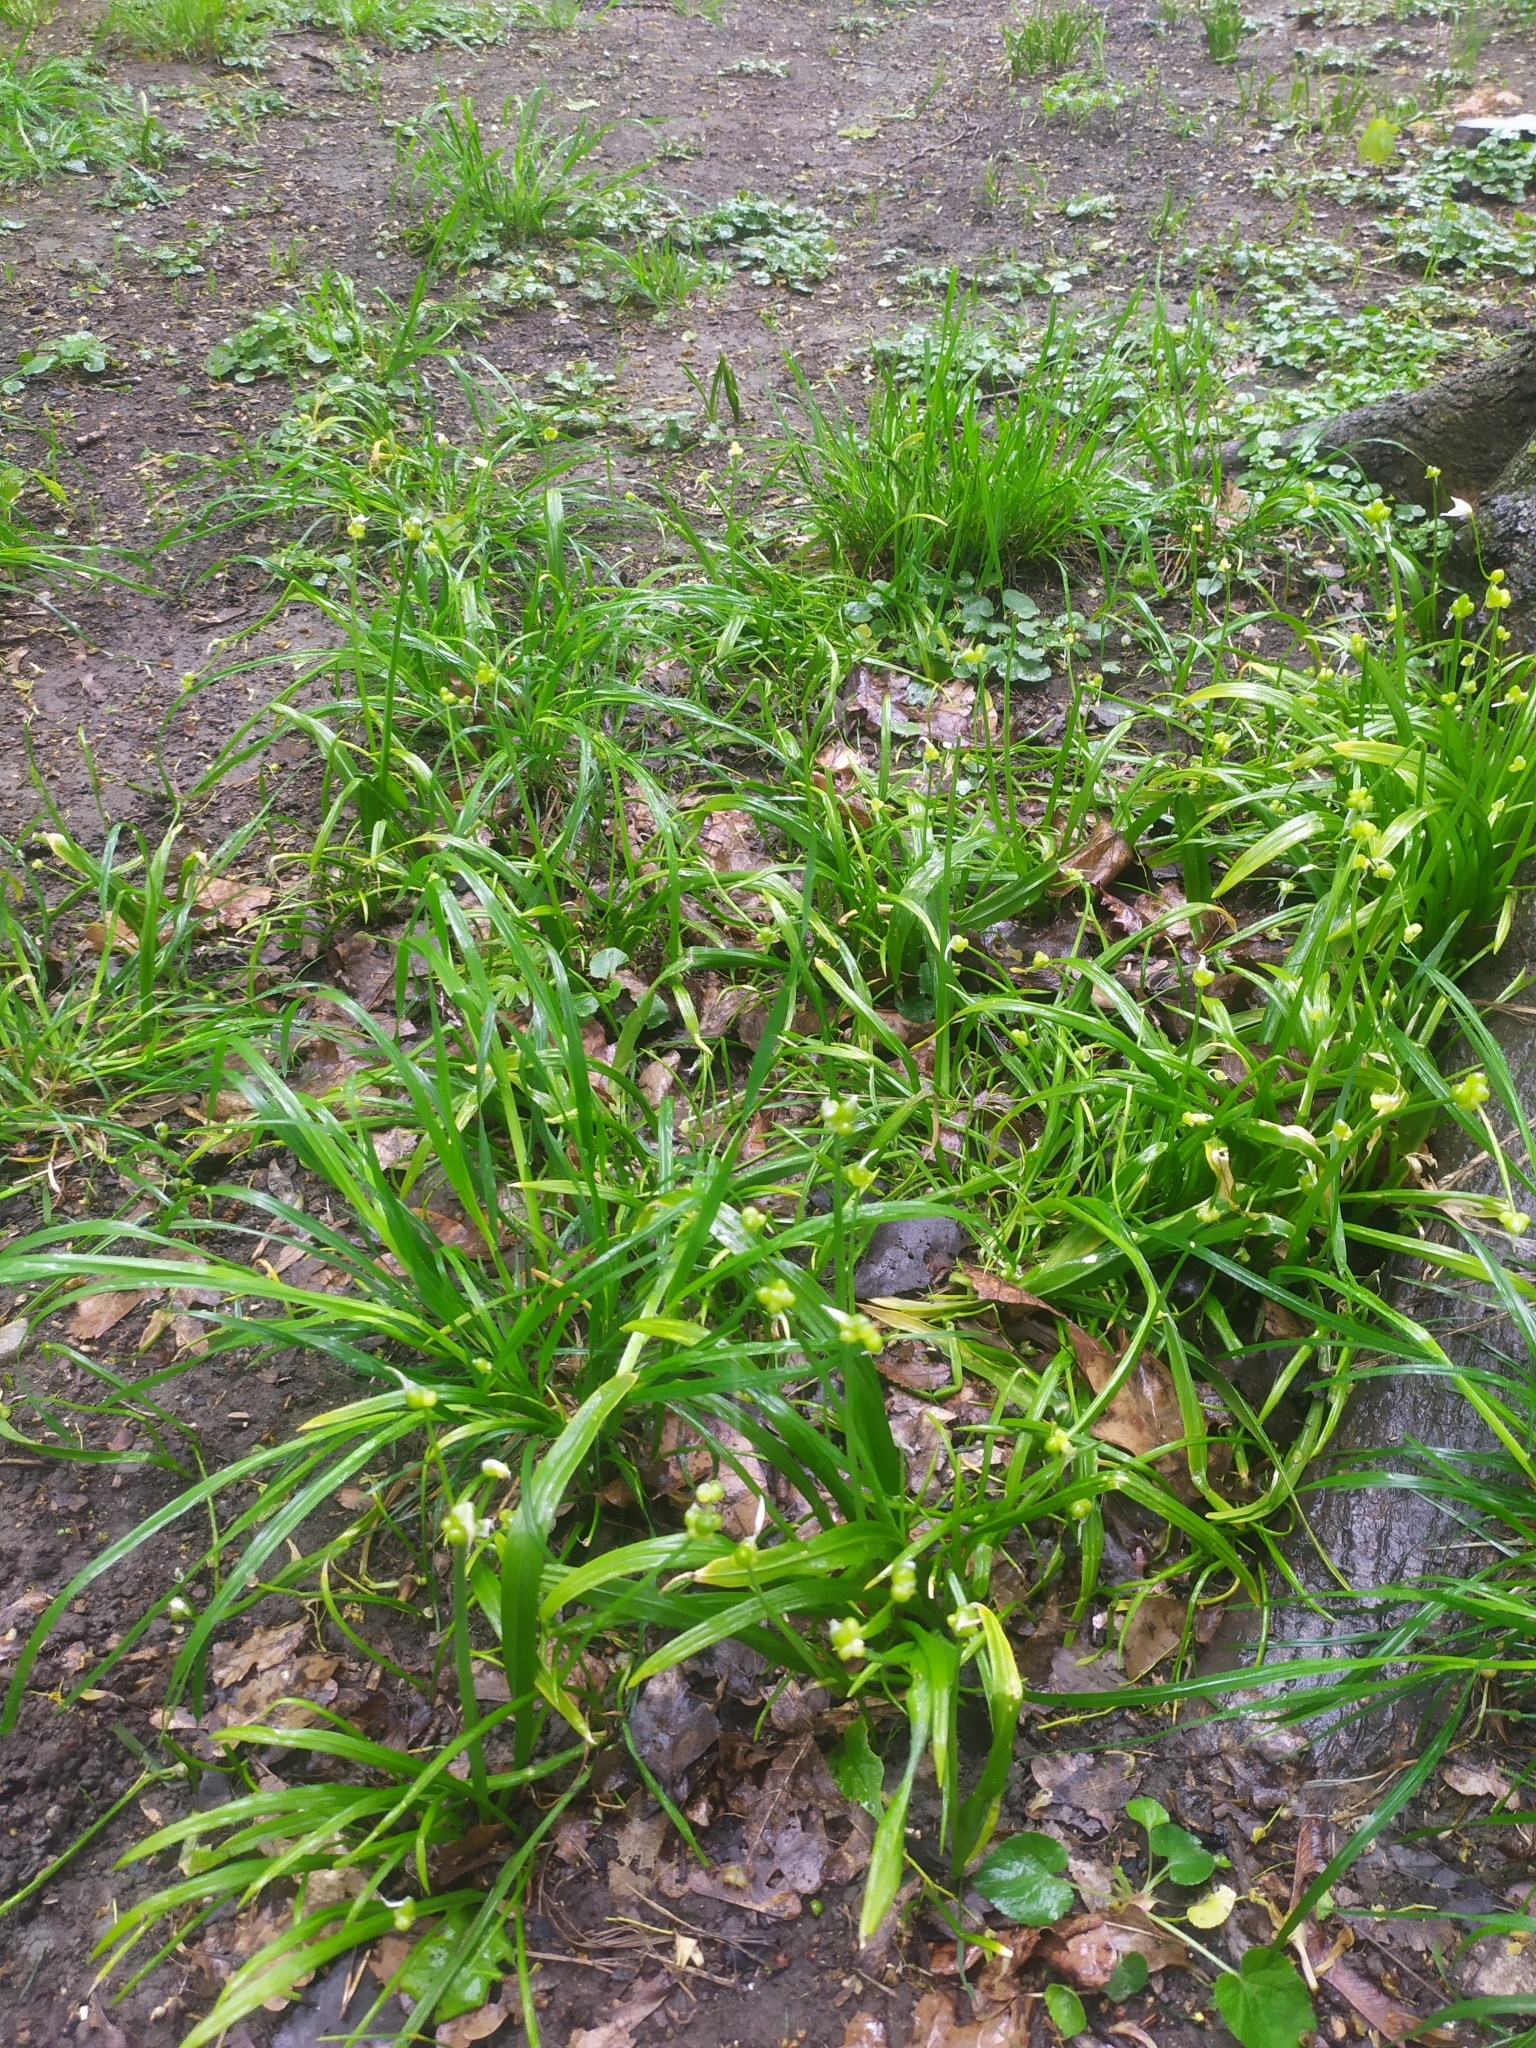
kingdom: Plantae
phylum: Tracheophyta
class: Liliopsida
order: Asparagales
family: Amaryllidaceae
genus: Allium
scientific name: Allium paradoxum
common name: Few-flowered garlic
